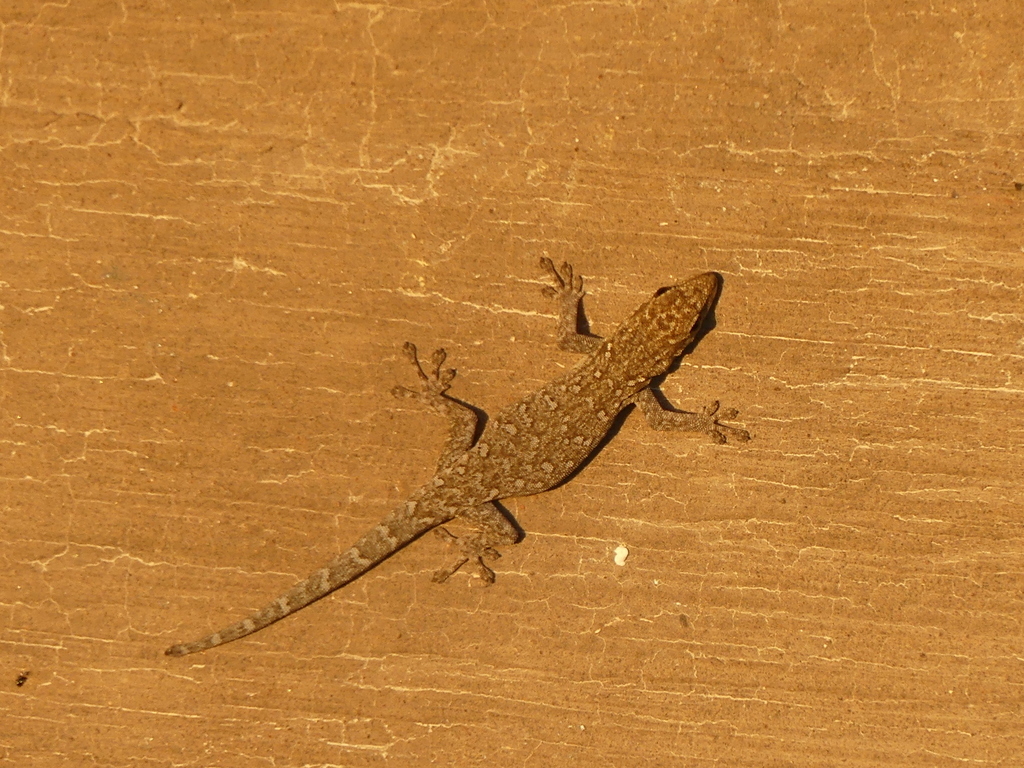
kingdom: Animalia
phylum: Chordata
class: Squamata
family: Gekkonidae
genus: Lygodactylus
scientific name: Lygodactylus chobiensis
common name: Okavango dwarf gecko
